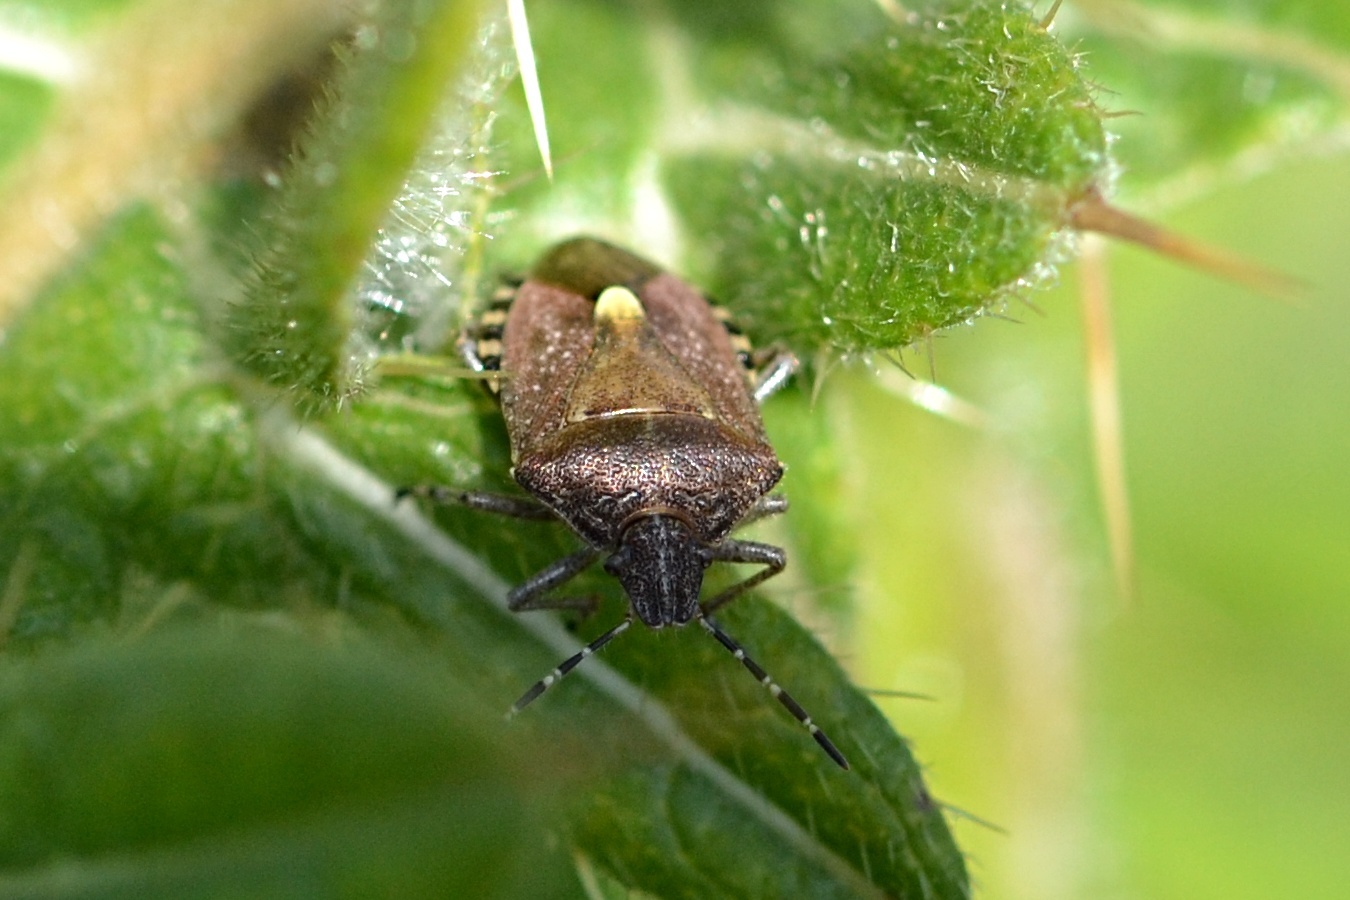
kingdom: Animalia
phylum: Arthropoda
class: Insecta
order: Hemiptera
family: Pentatomidae
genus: Dolycoris
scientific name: Dolycoris baccarum
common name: Sloe bug
